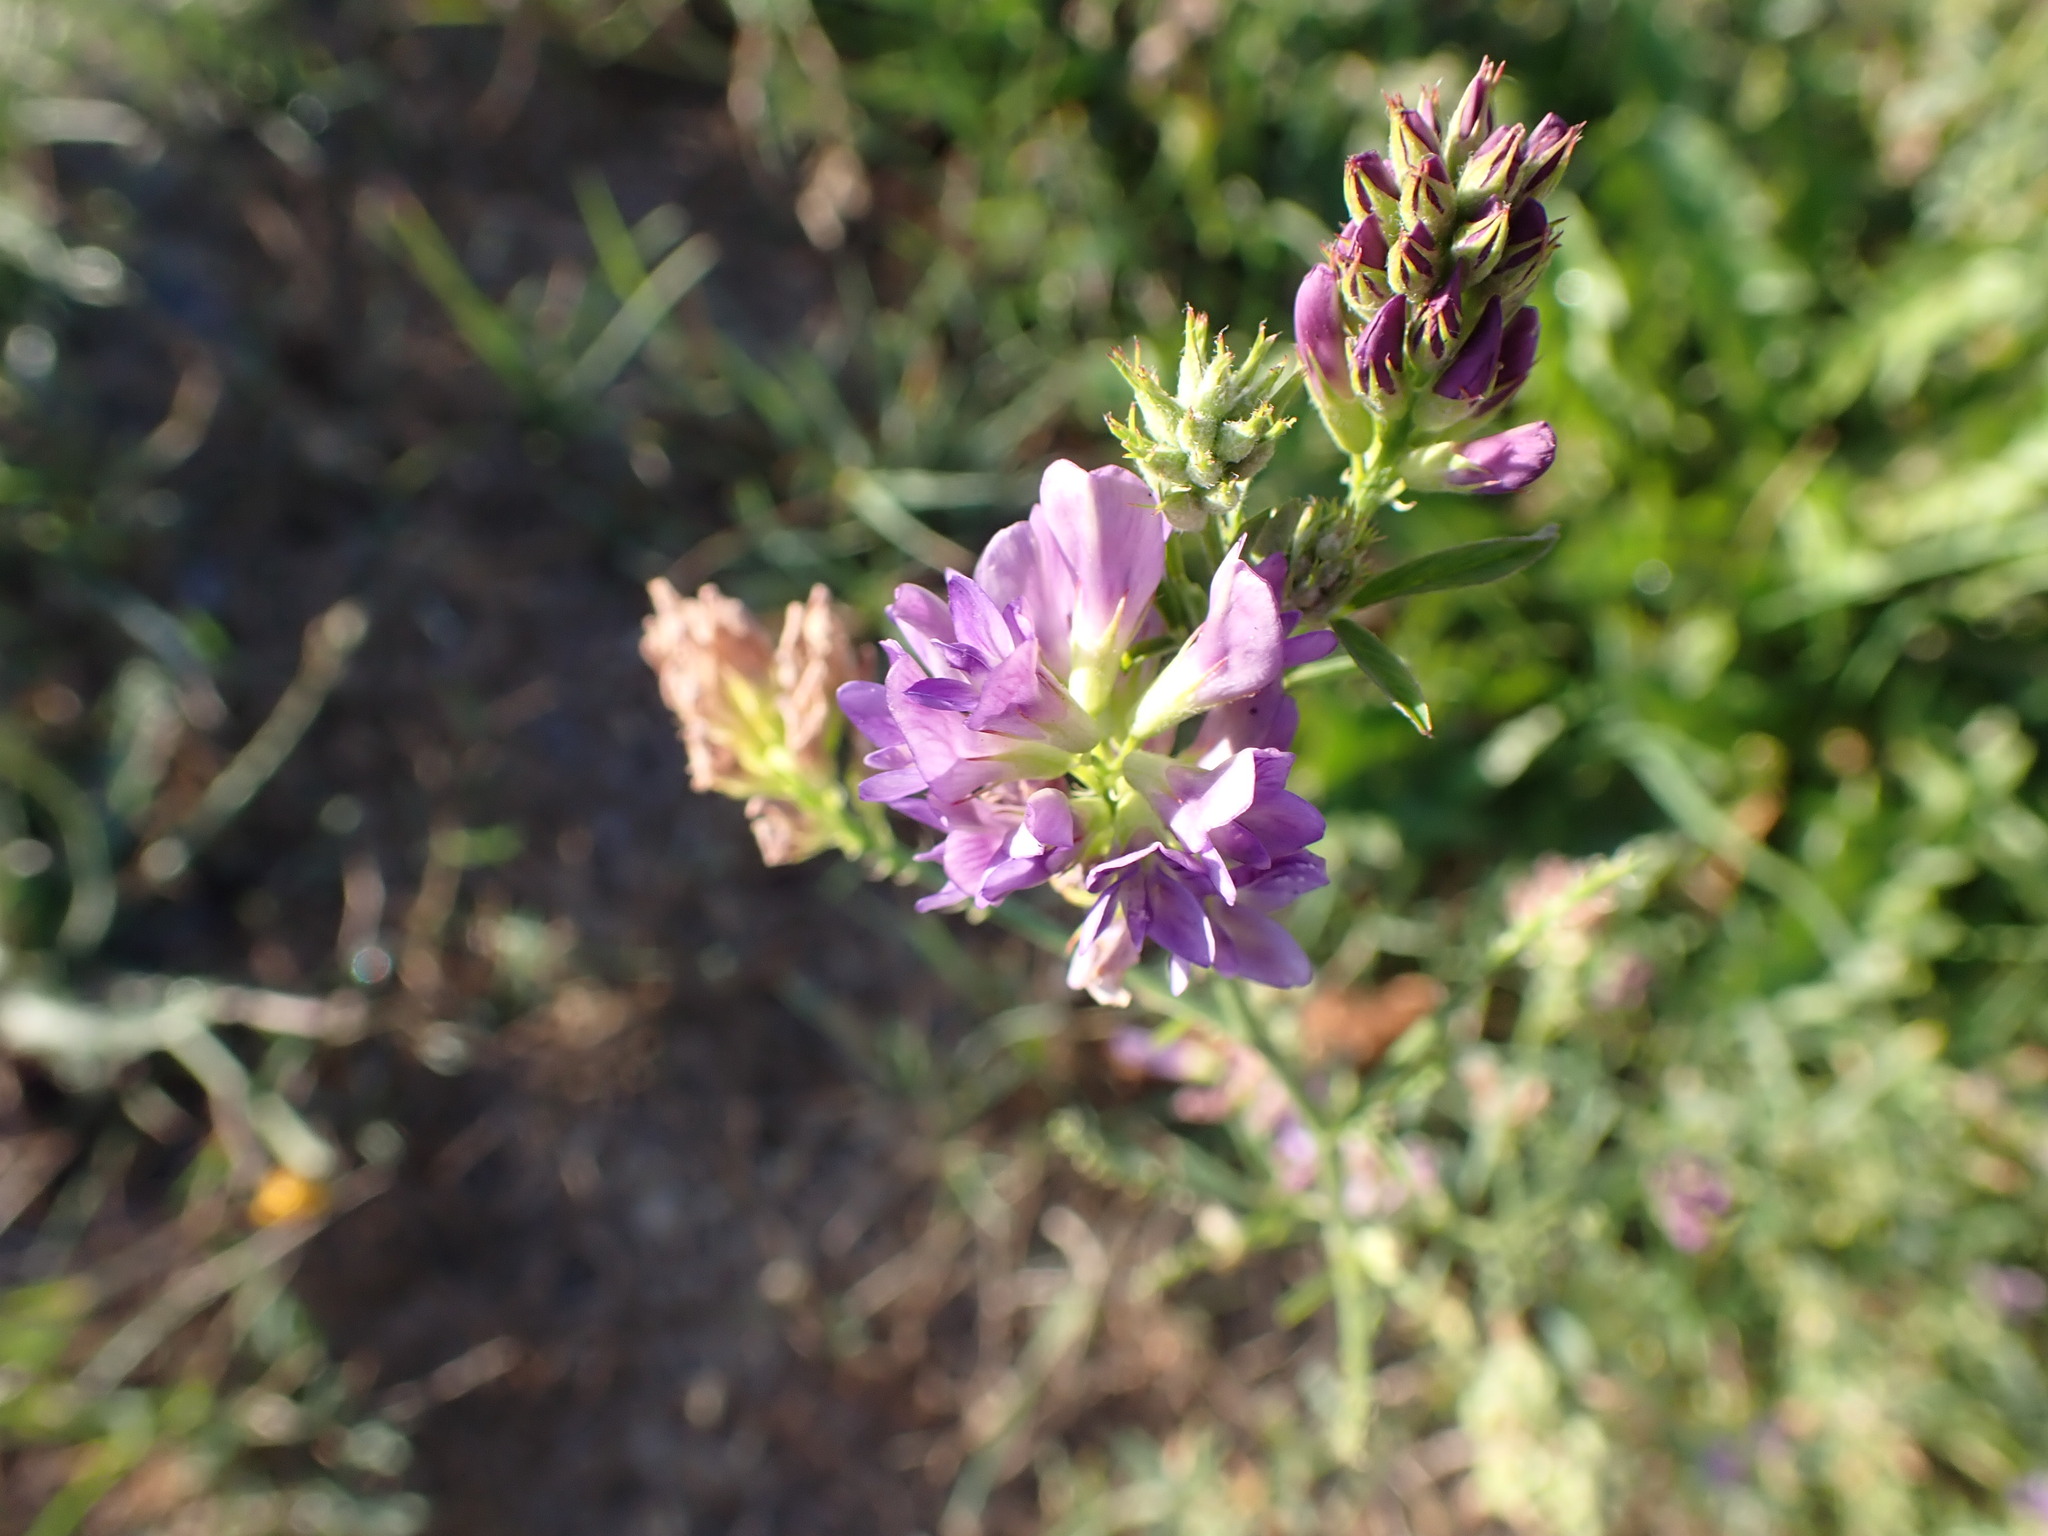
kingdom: Plantae
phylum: Tracheophyta
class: Magnoliopsida
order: Fabales
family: Fabaceae
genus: Medicago
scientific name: Medicago sativa
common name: Alfalfa
